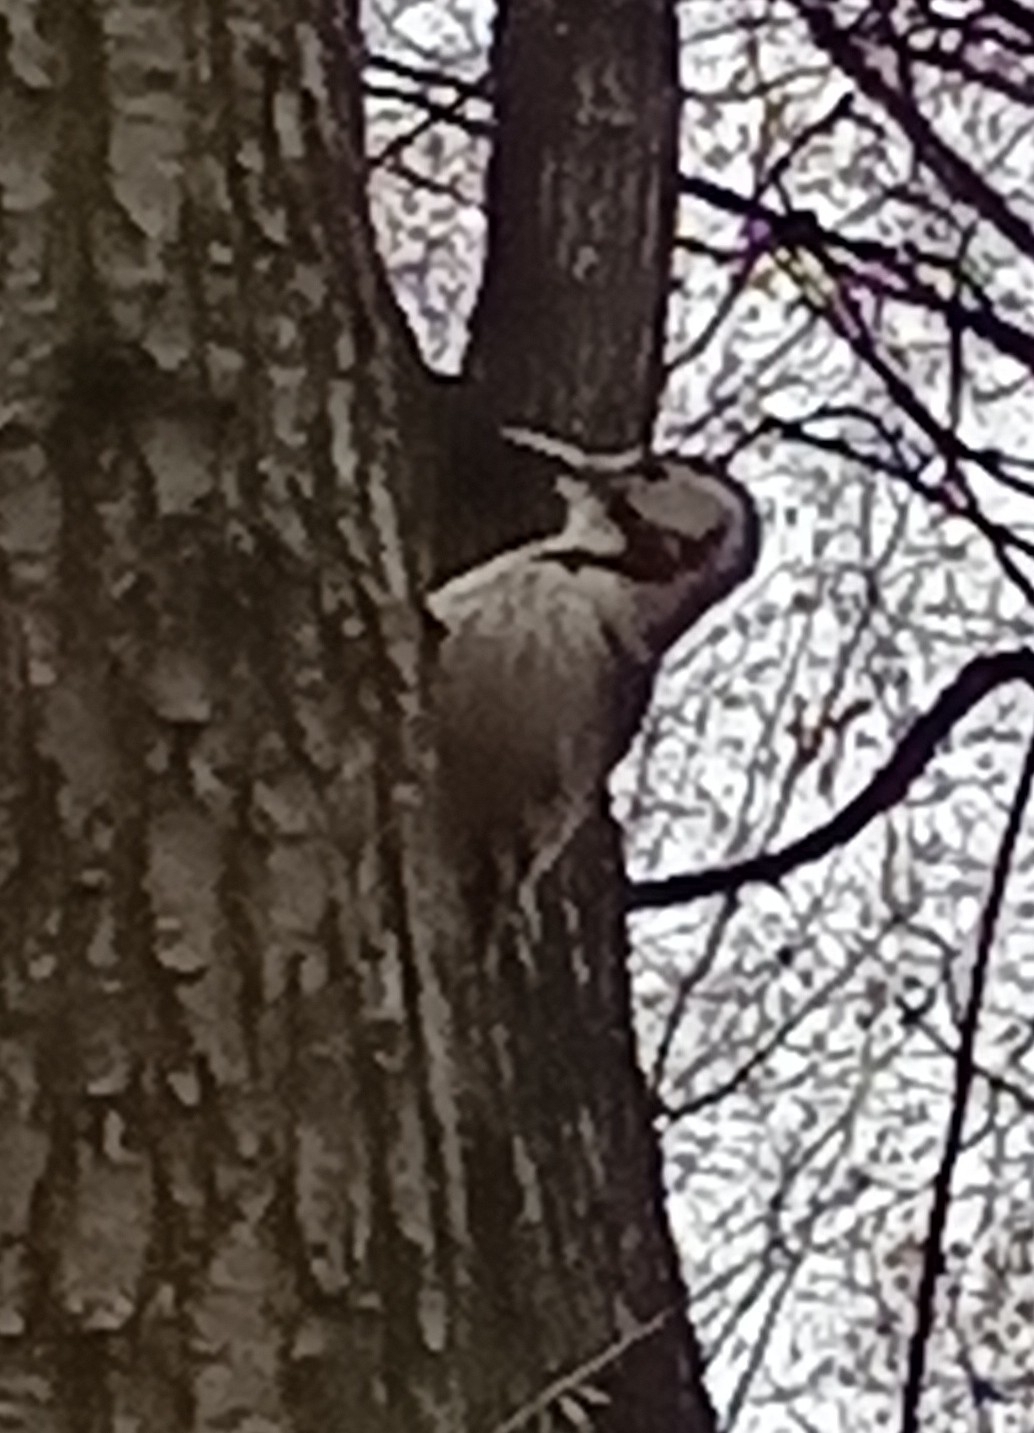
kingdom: Animalia
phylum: Chordata
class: Aves
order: Piciformes
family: Picidae
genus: Dendrocopos
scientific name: Dendrocopos leucotos
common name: White-backed woodpecker
